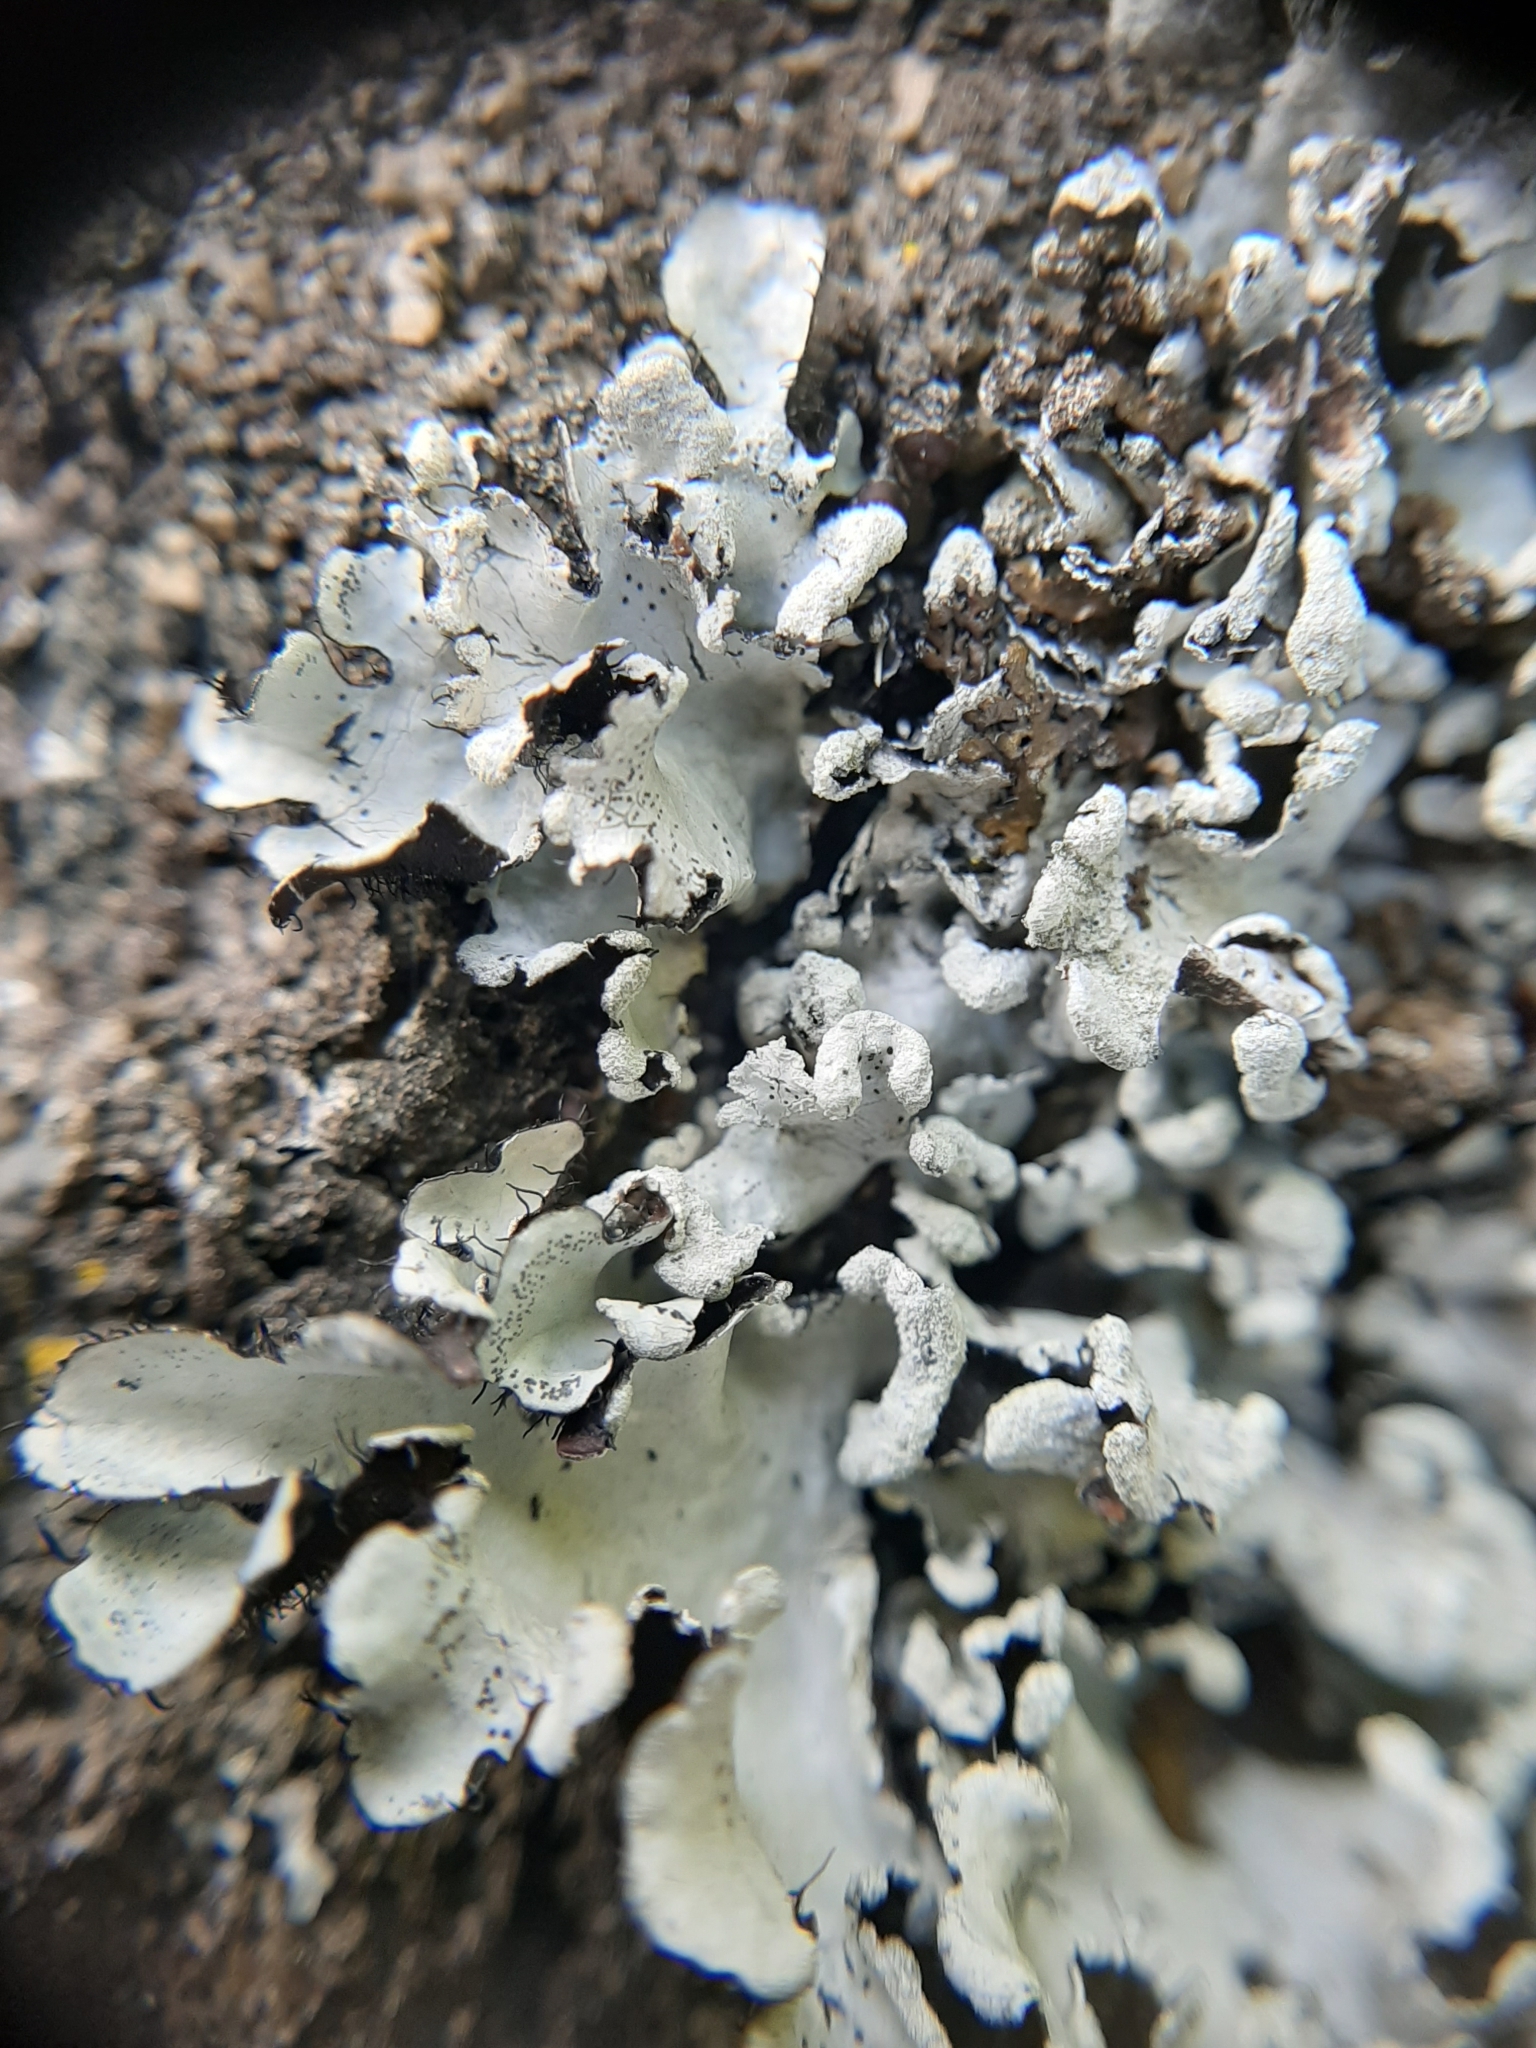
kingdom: Fungi
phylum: Ascomycota
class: Lecanoromycetes
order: Lecanorales
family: Parmeliaceae
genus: Parmotrema
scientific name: Parmotrema perlatum
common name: Black stone flower
